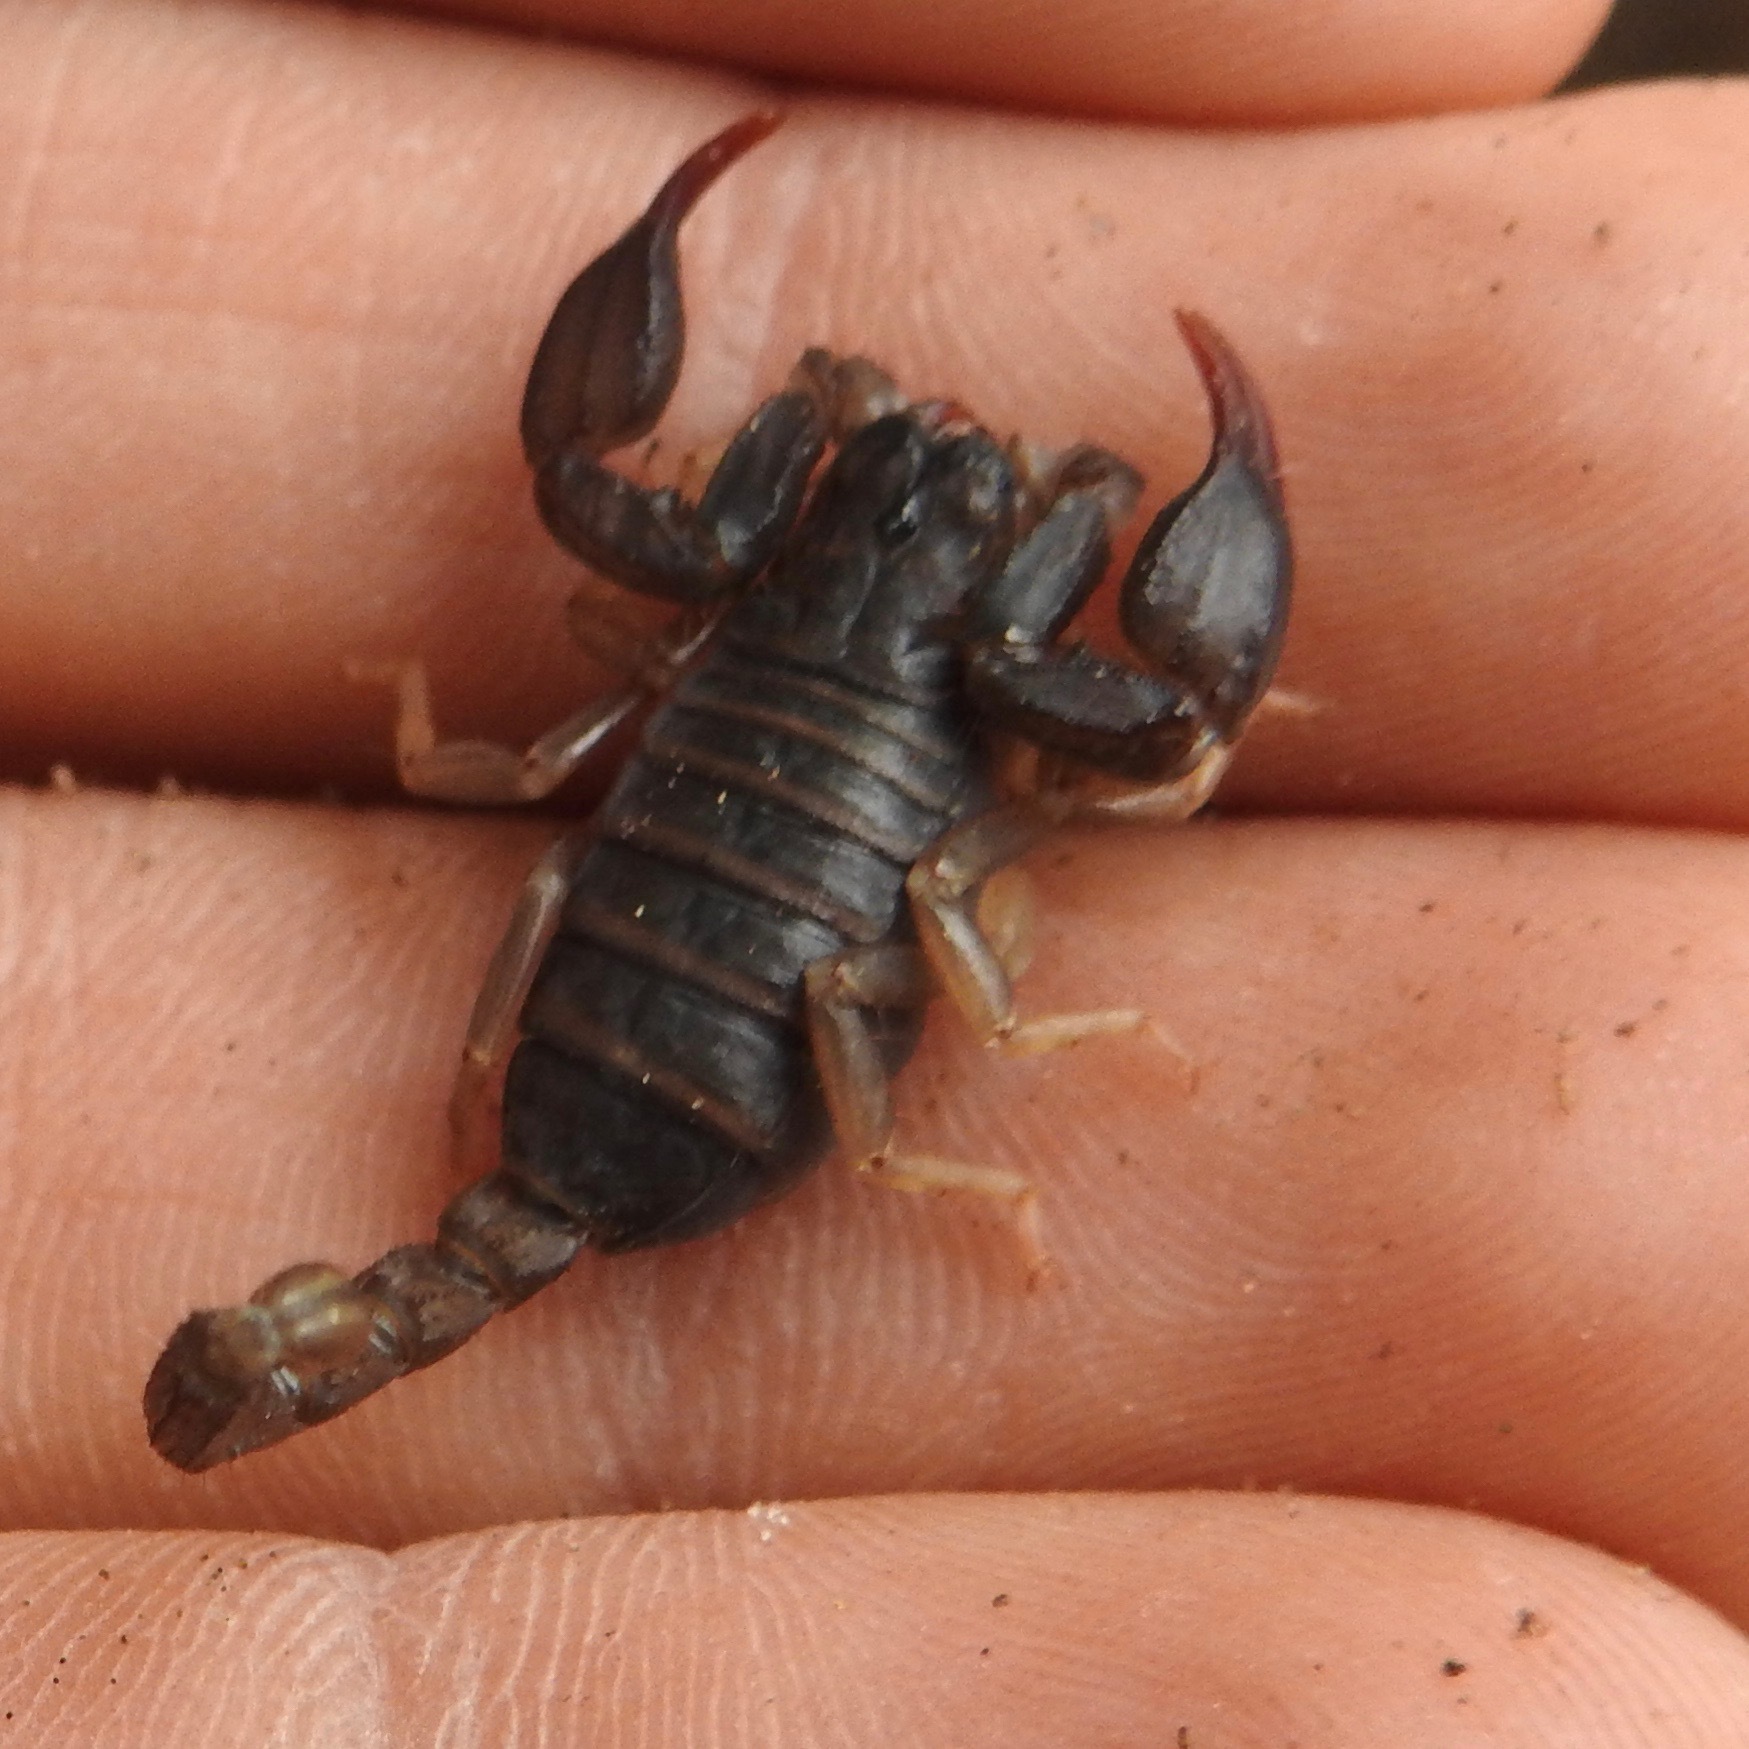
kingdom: Animalia
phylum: Arthropoda
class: Arachnida
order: Scorpiones
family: Chactidae
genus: Uroctonus
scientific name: Uroctonus mordax
